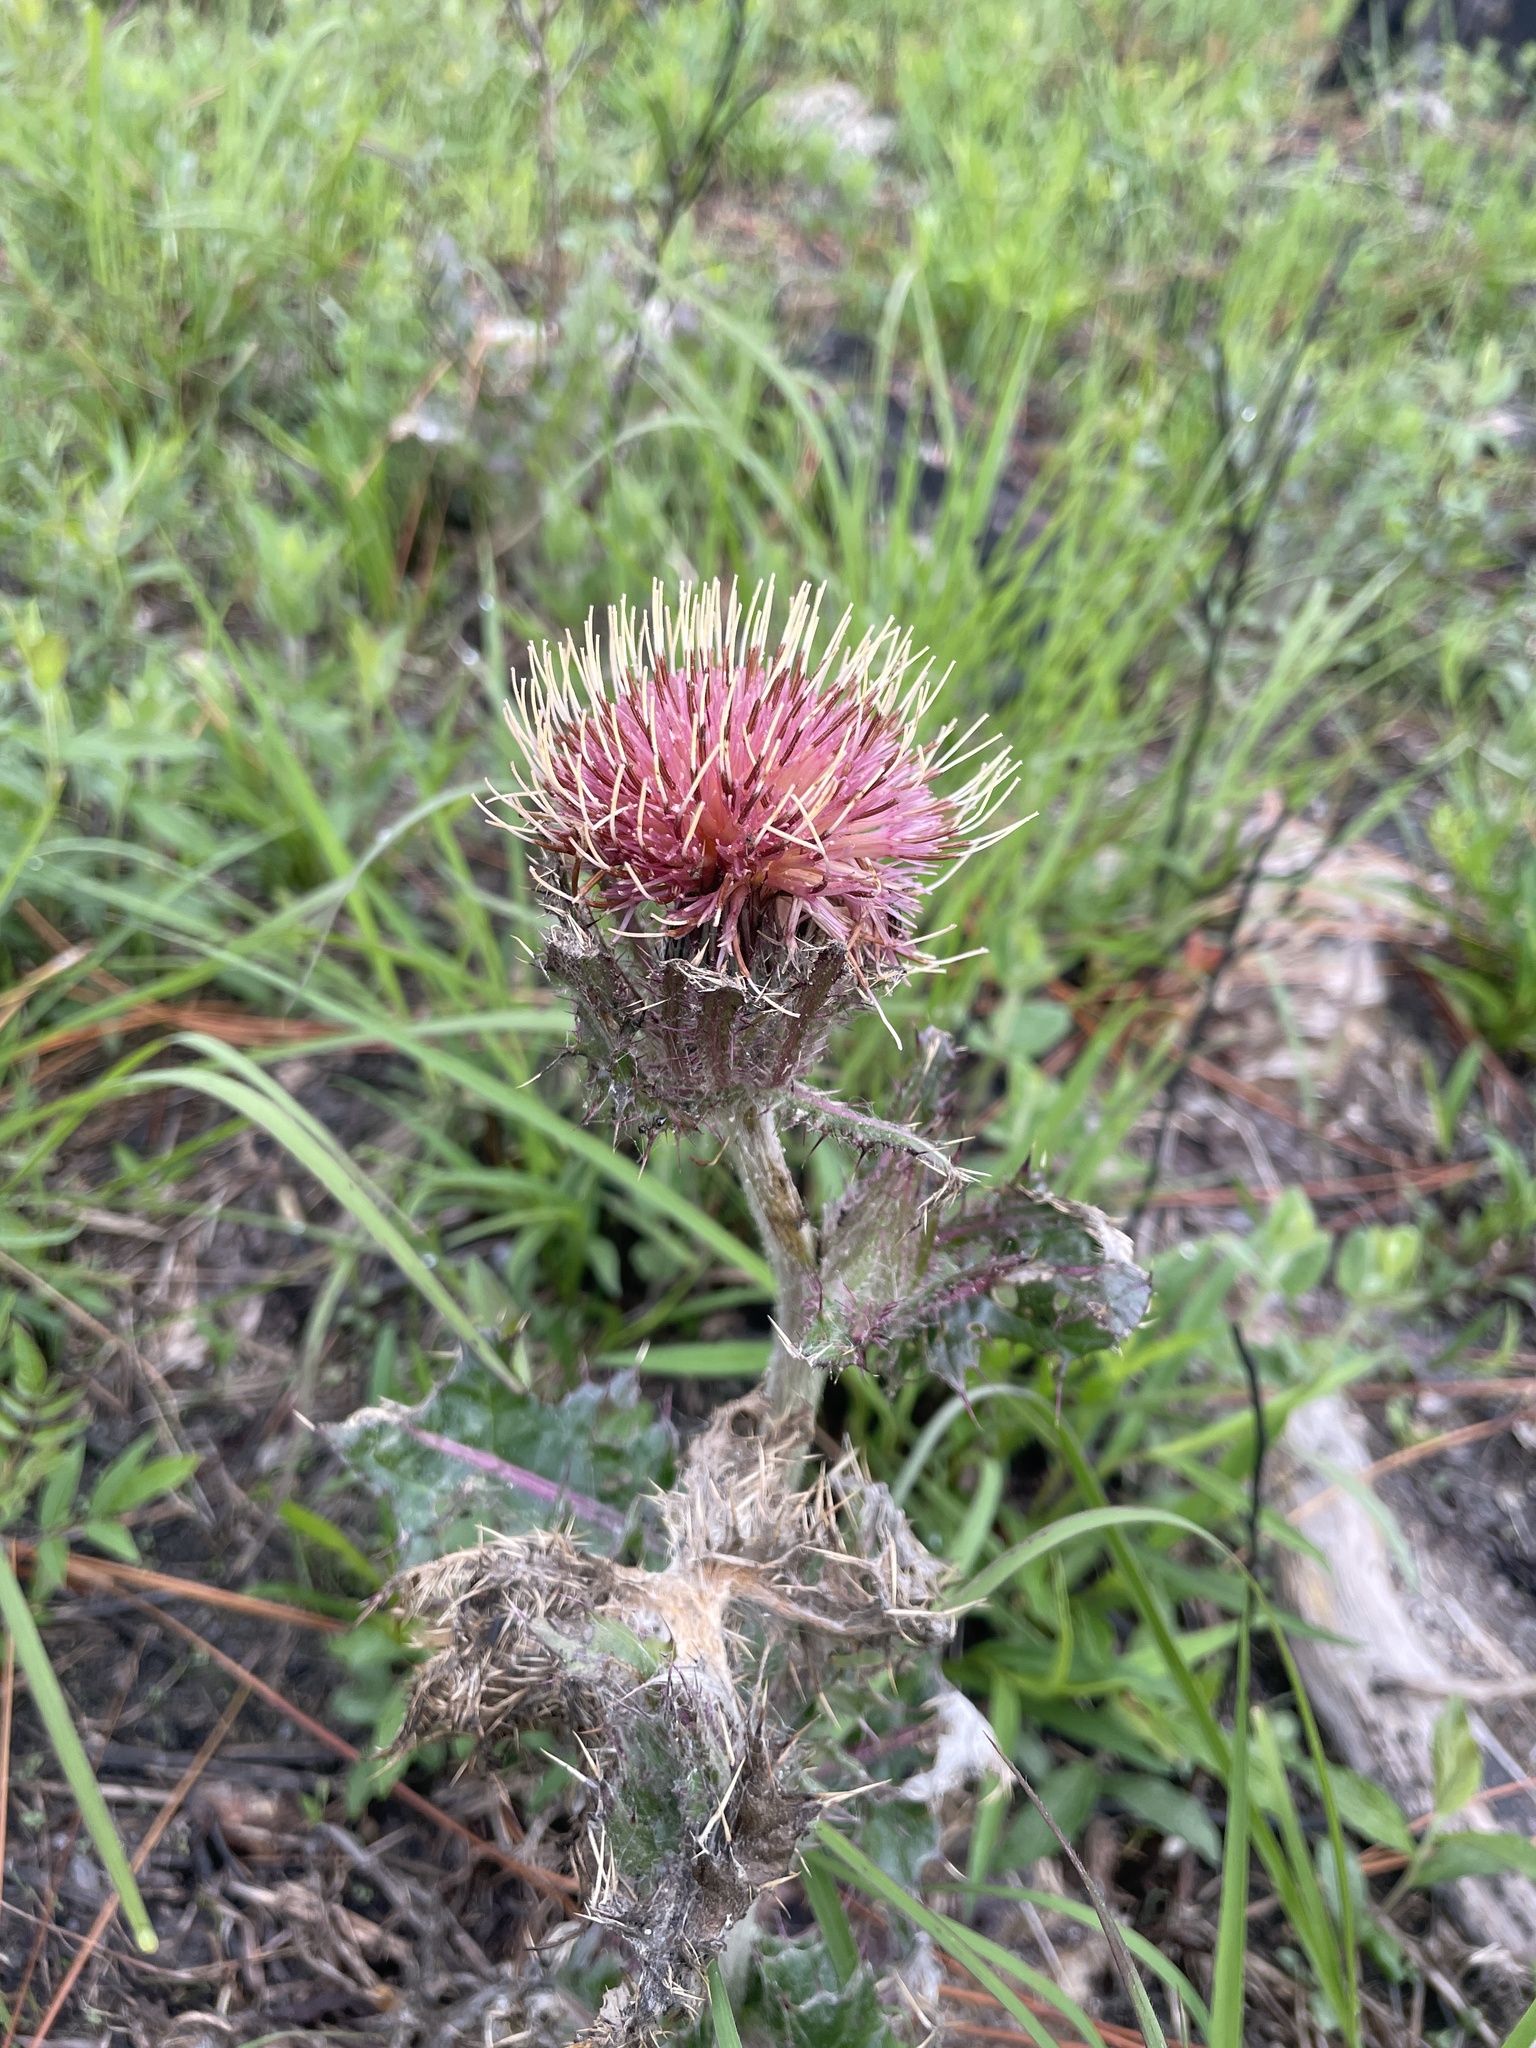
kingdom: Plantae
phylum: Tracheophyta
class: Magnoliopsida
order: Asterales
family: Asteraceae
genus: Cirsium
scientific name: Cirsium horridulum
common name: Bristly thistle
